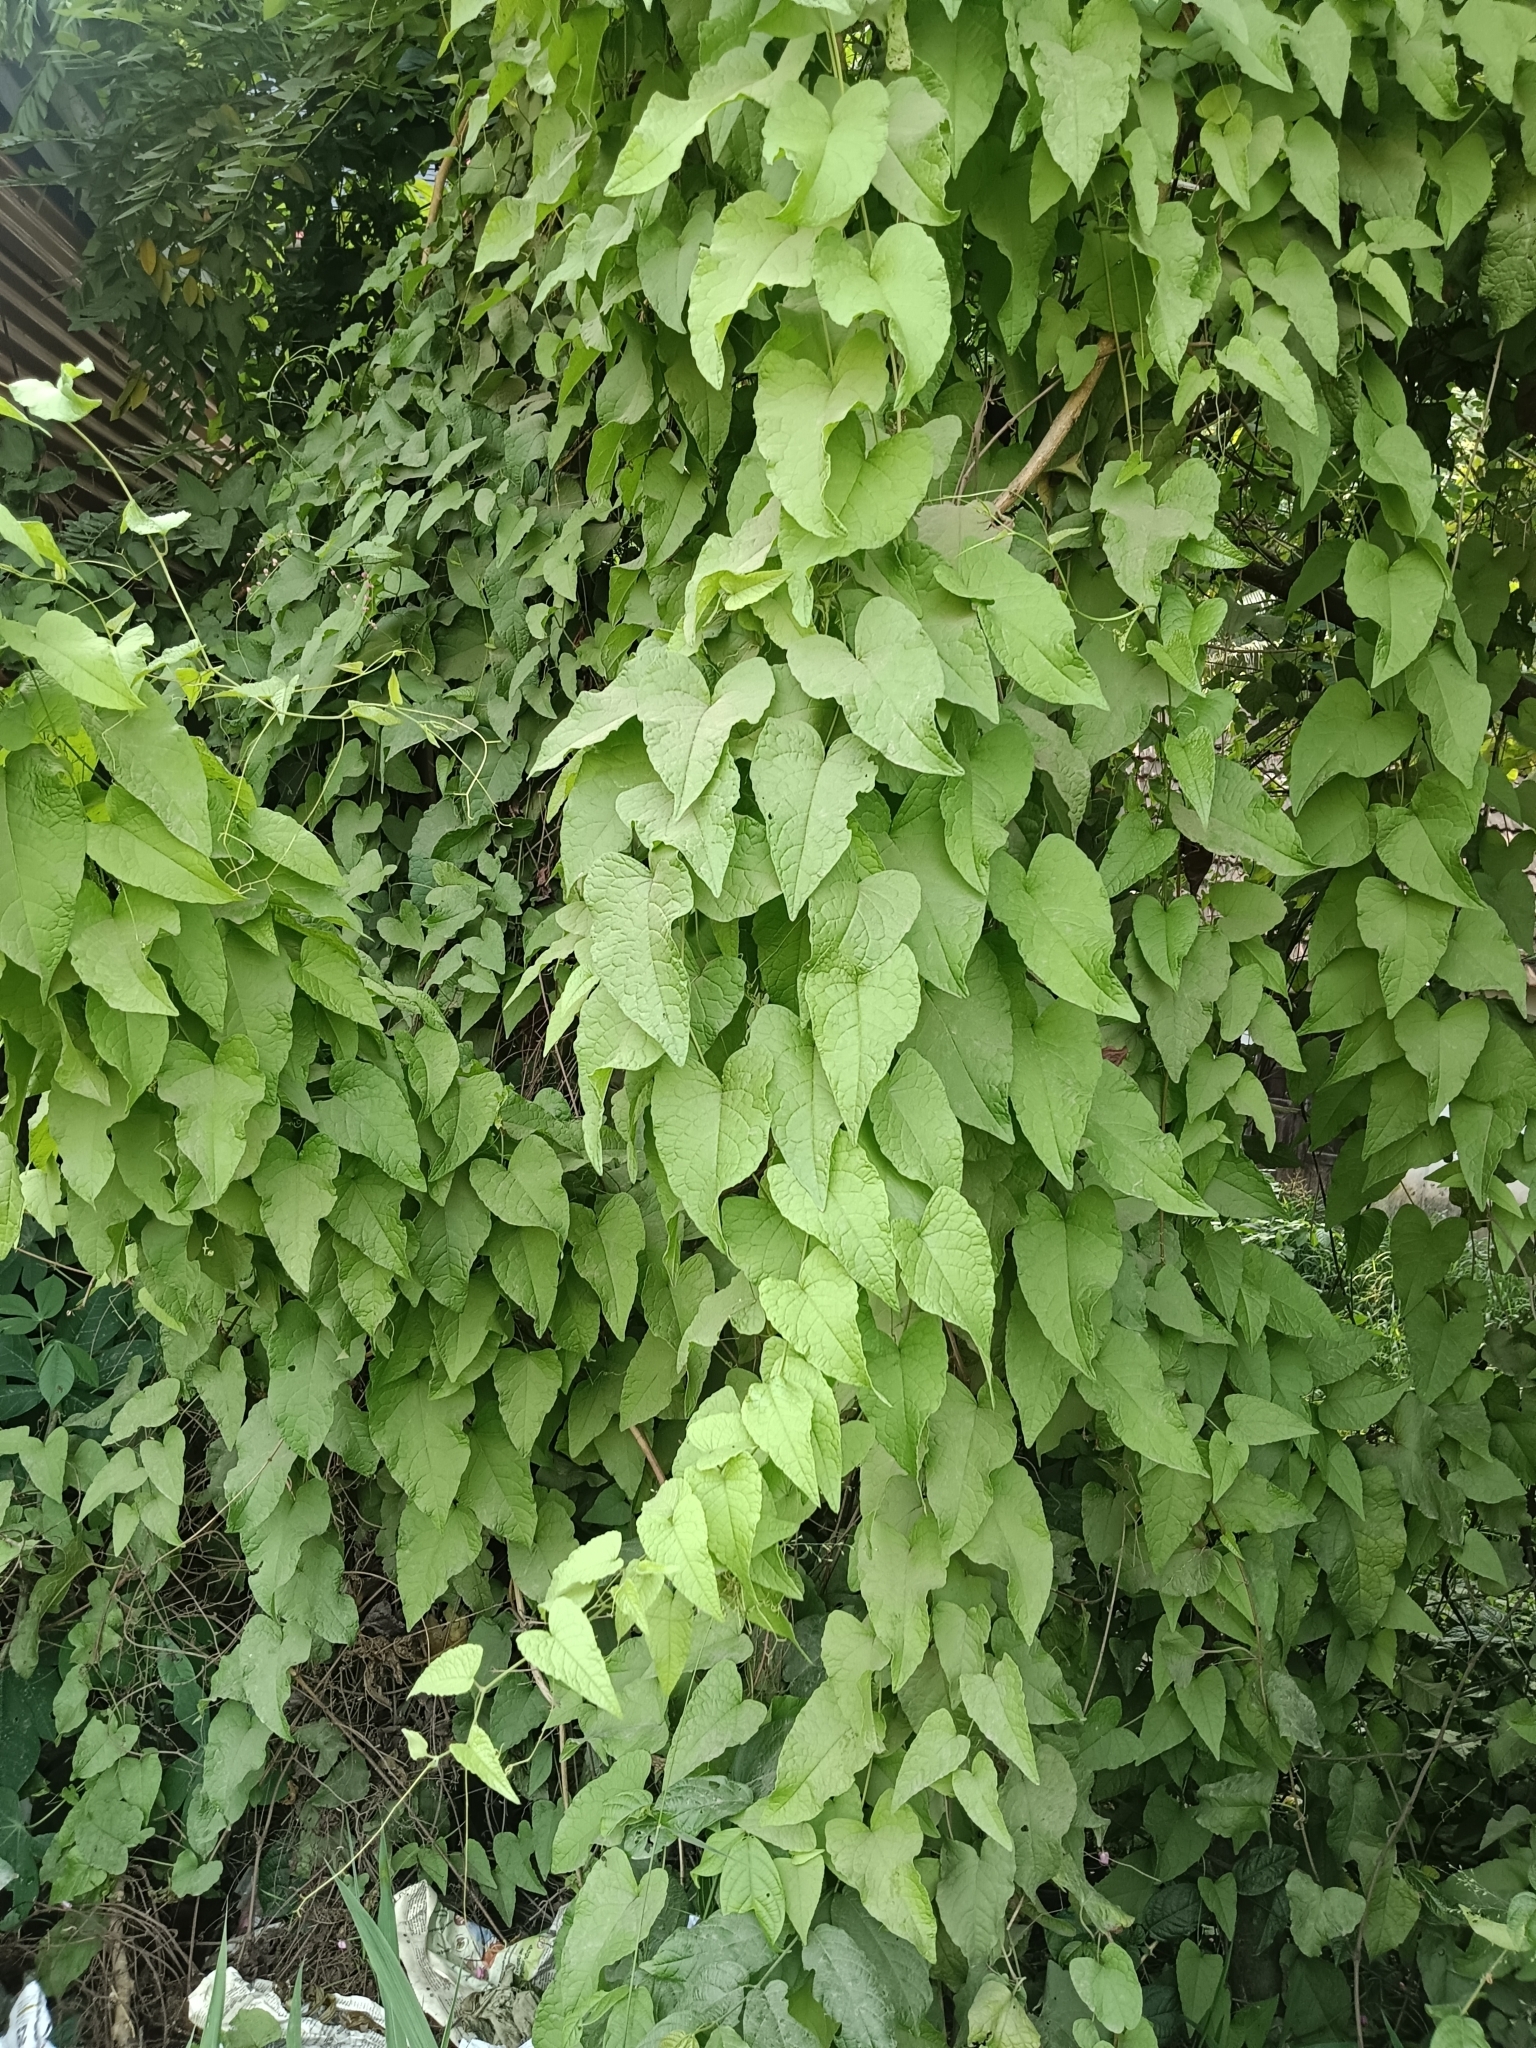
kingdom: Plantae
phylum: Tracheophyta
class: Magnoliopsida
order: Caryophyllales
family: Polygonaceae
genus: Antigonon
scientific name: Antigonon leptopus
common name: Coral vine
